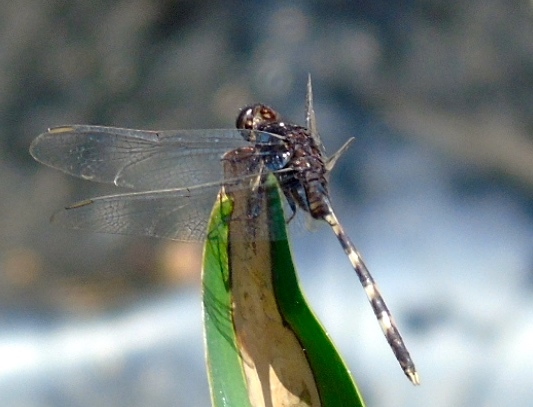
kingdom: Animalia
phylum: Arthropoda
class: Insecta
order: Odonata
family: Libellulidae
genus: Erythemis
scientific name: Erythemis plebeja
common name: Pin-tailed pondhawk
